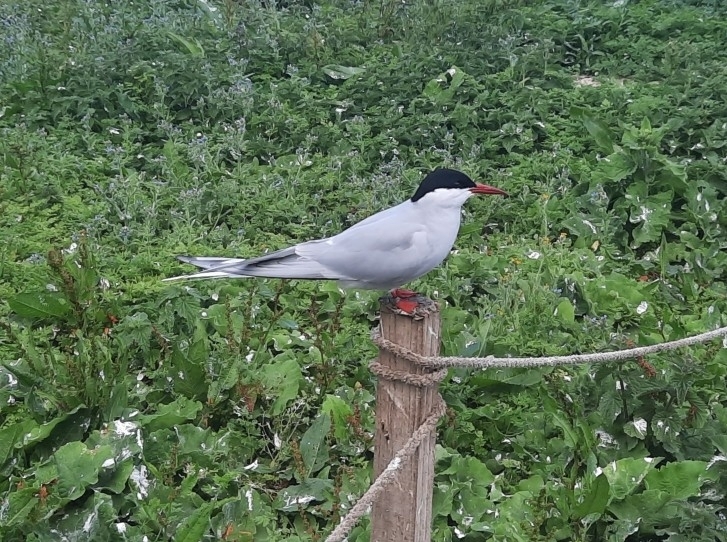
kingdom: Animalia
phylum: Chordata
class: Aves
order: Charadriiformes
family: Laridae
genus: Sterna
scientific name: Sterna paradisaea
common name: Arctic tern
